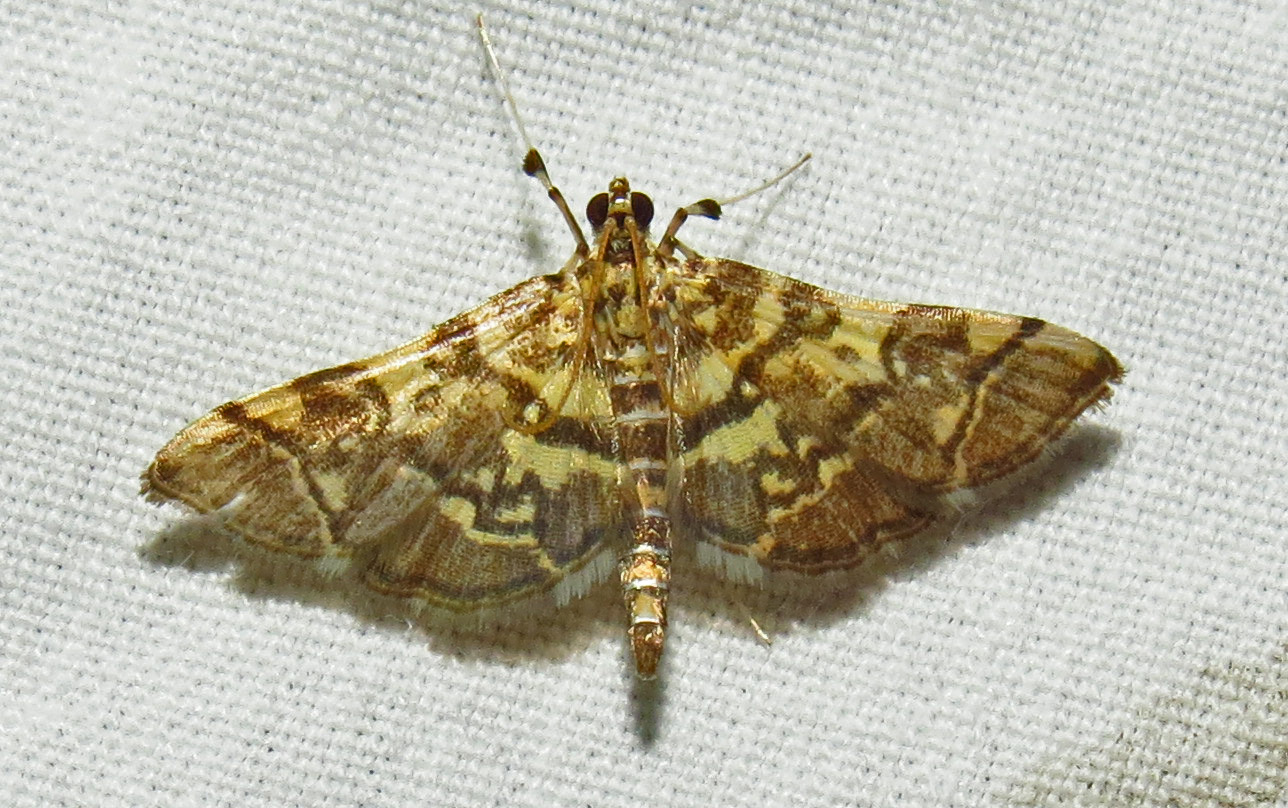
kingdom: Animalia
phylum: Arthropoda
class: Insecta
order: Lepidoptera
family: Crambidae
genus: Apogeshna
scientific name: Apogeshna stenialis
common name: Checkered apogeshna moth
